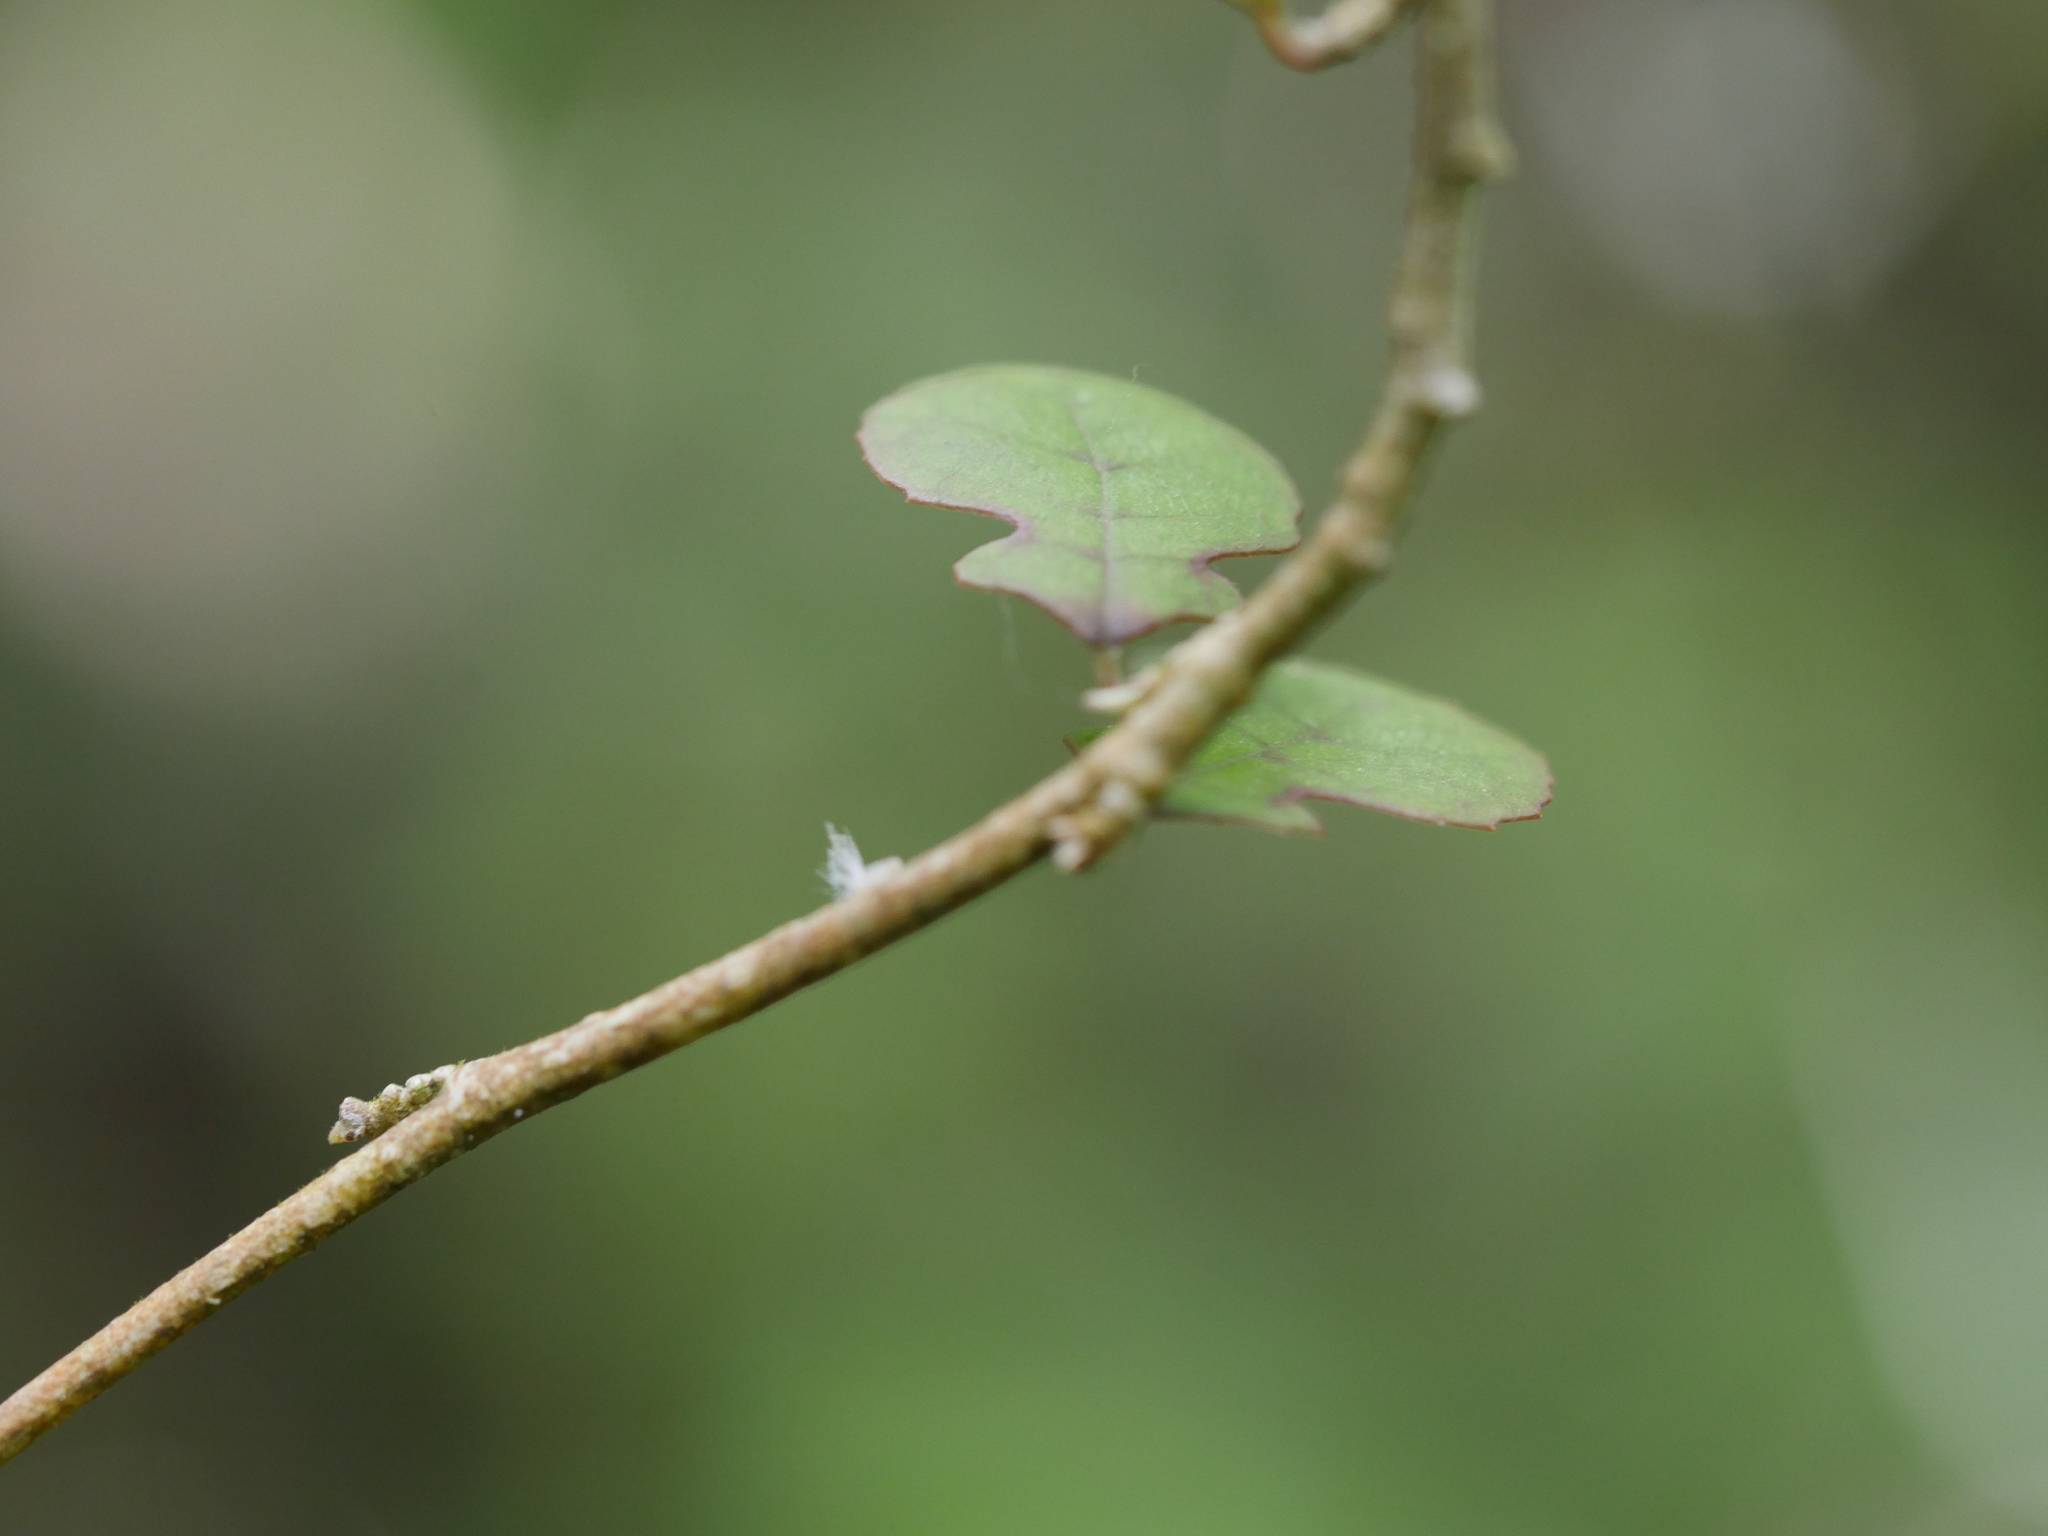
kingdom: Plantae
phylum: Tracheophyta
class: Magnoliopsida
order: Rosales
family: Moraceae
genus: Paratrophis
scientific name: Paratrophis microphylla
